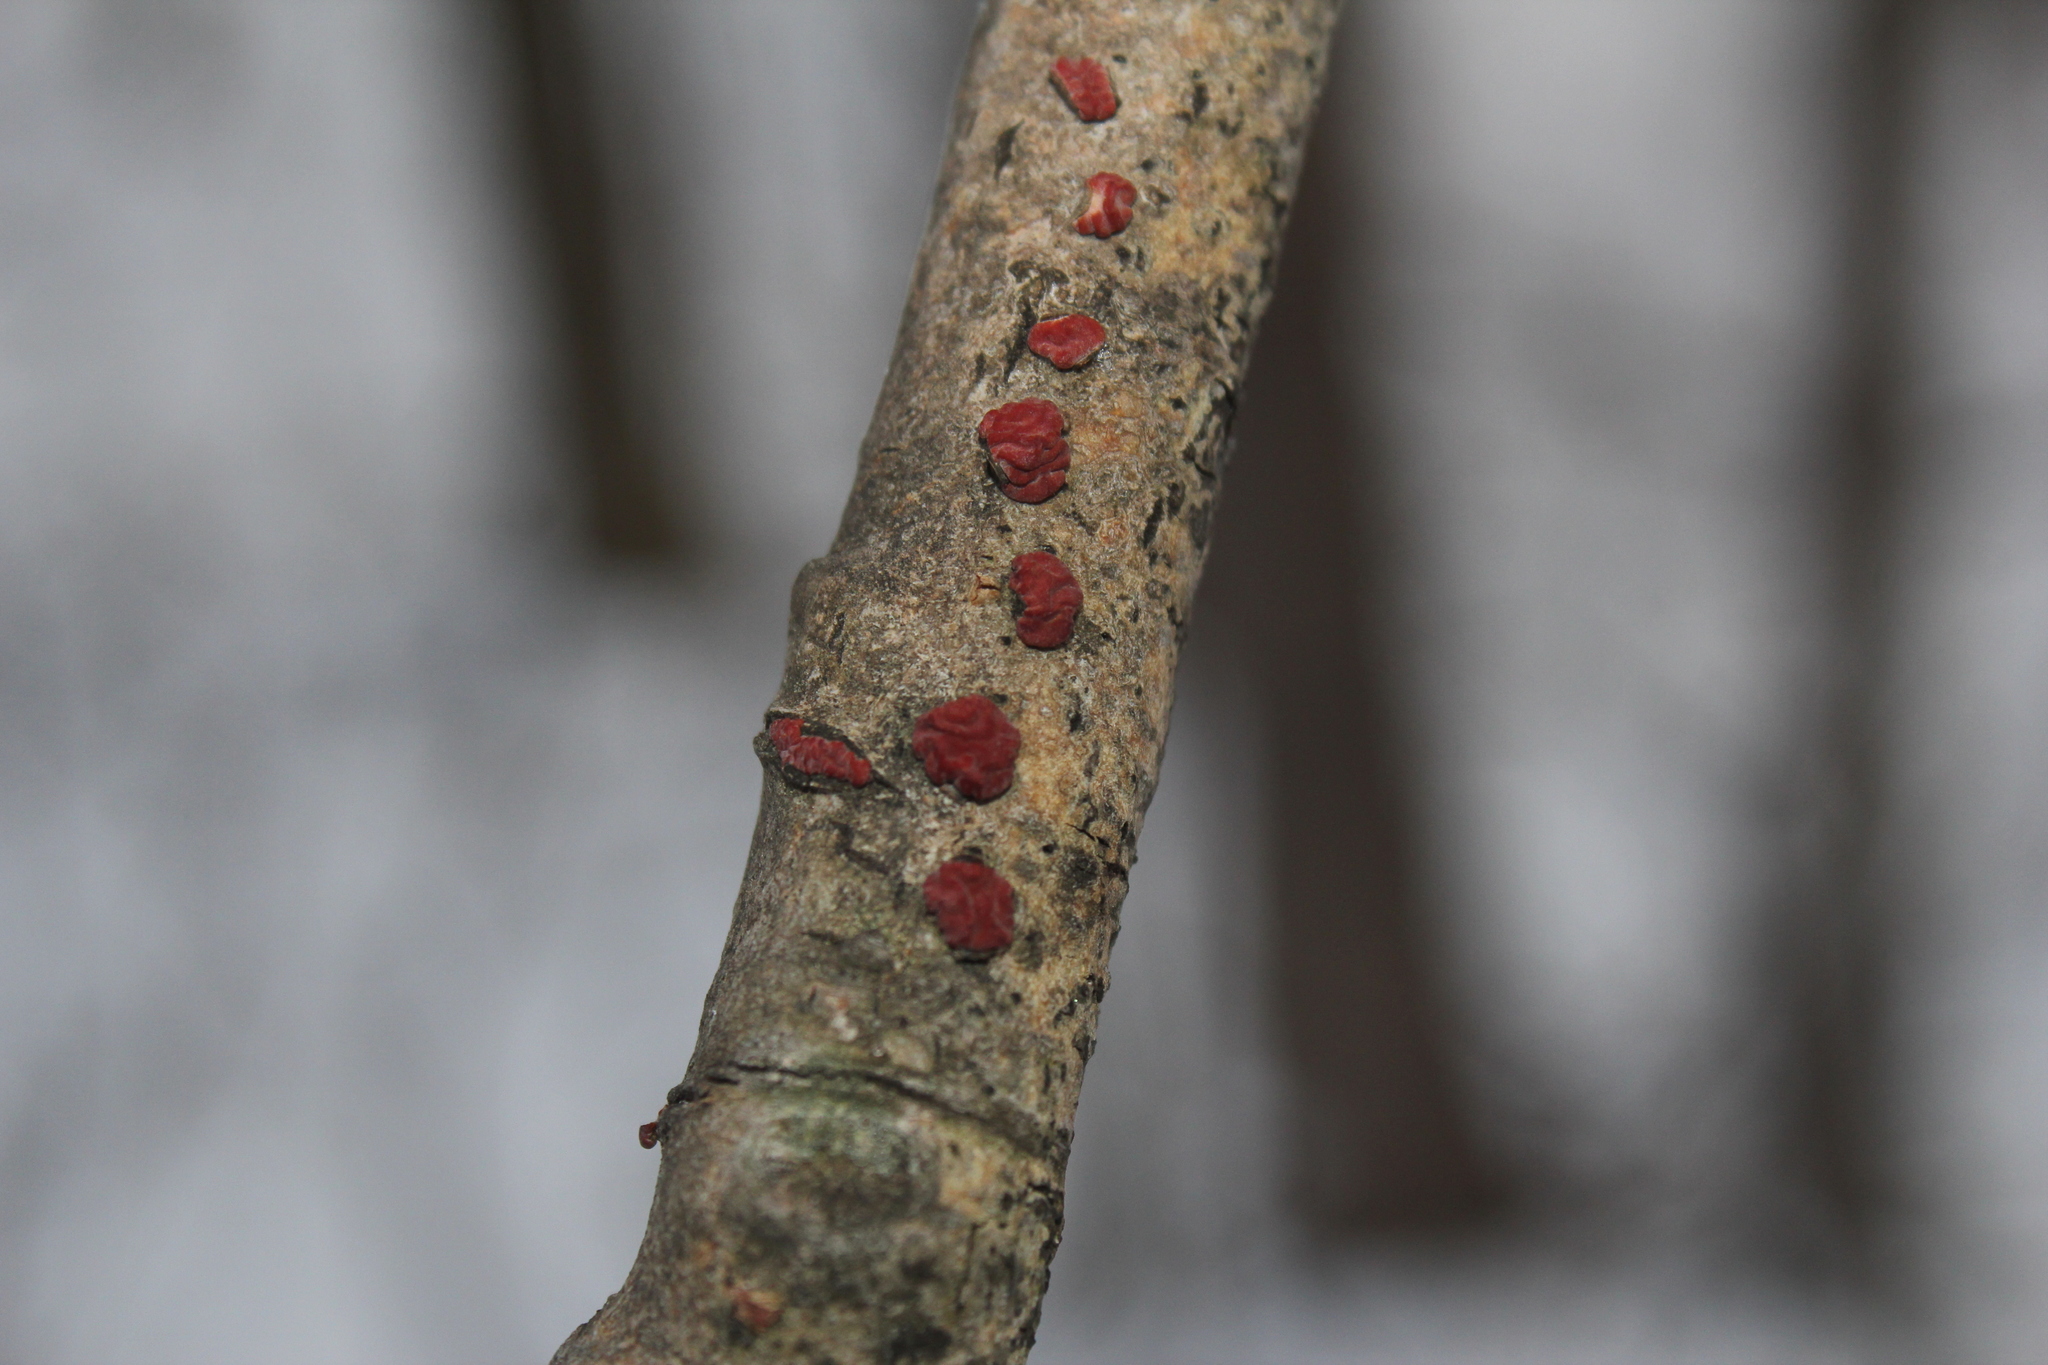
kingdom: Fungi
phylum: Basidiomycota
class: Agaricomycetes
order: Russulales
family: Peniophoraceae
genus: Peniophora
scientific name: Peniophora rufa
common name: Red tree brain fungus
